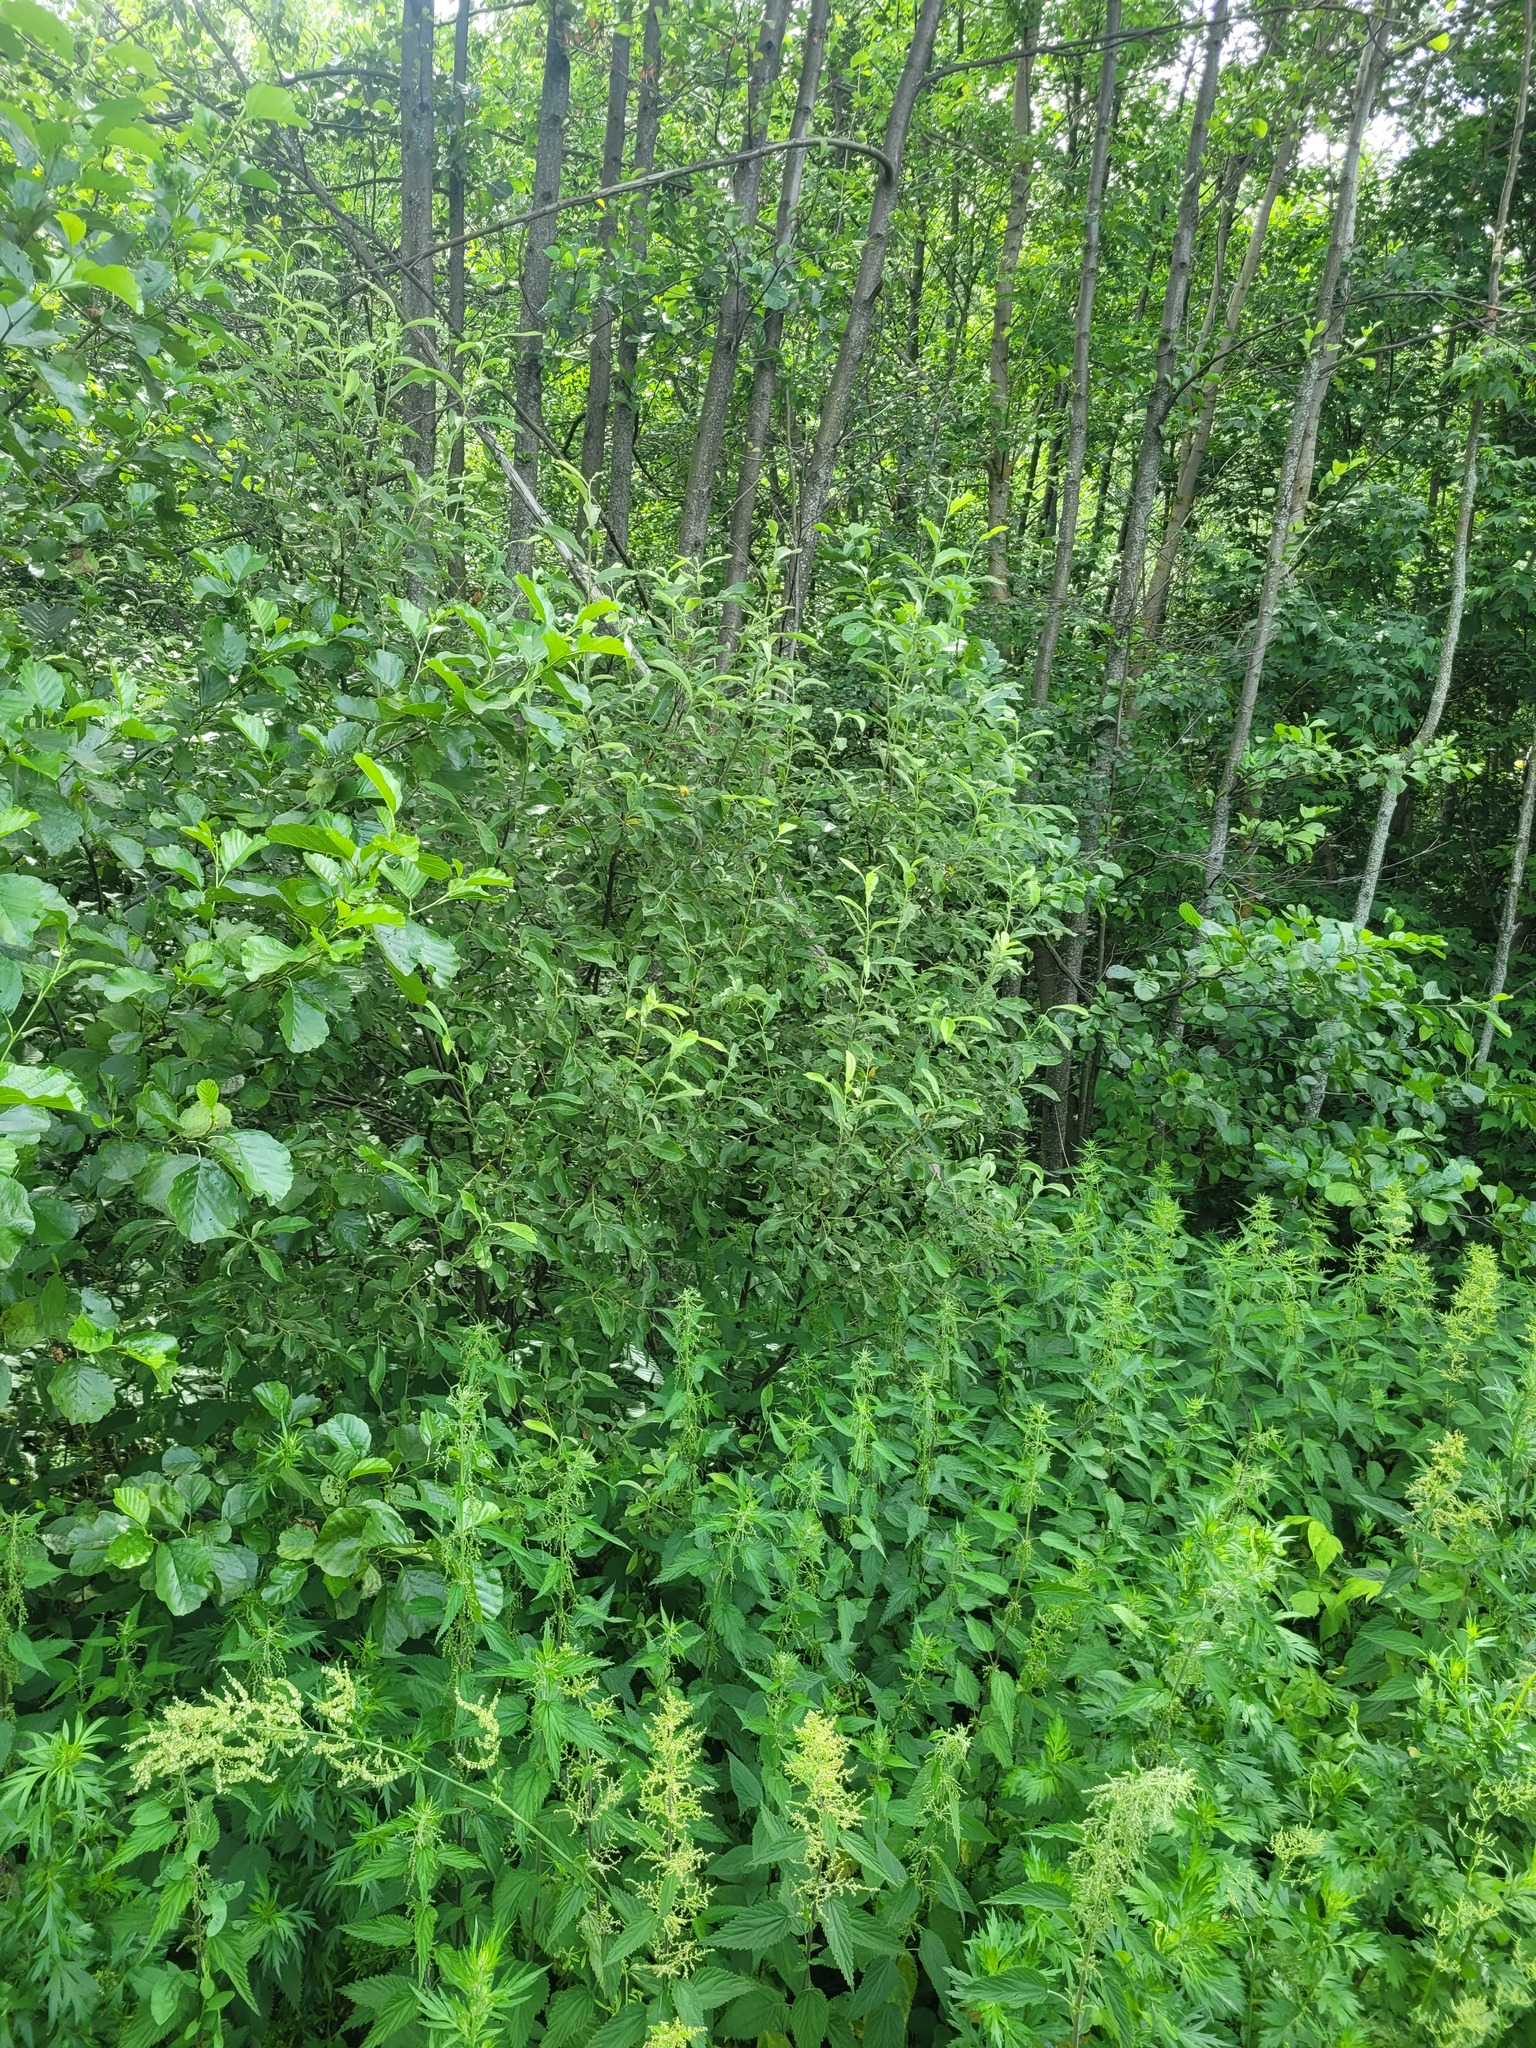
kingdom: Plantae
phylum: Tracheophyta
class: Magnoliopsida
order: Malpighiales
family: Salicaceae
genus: Salix
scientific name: Salix cinerea
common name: Common sallow
